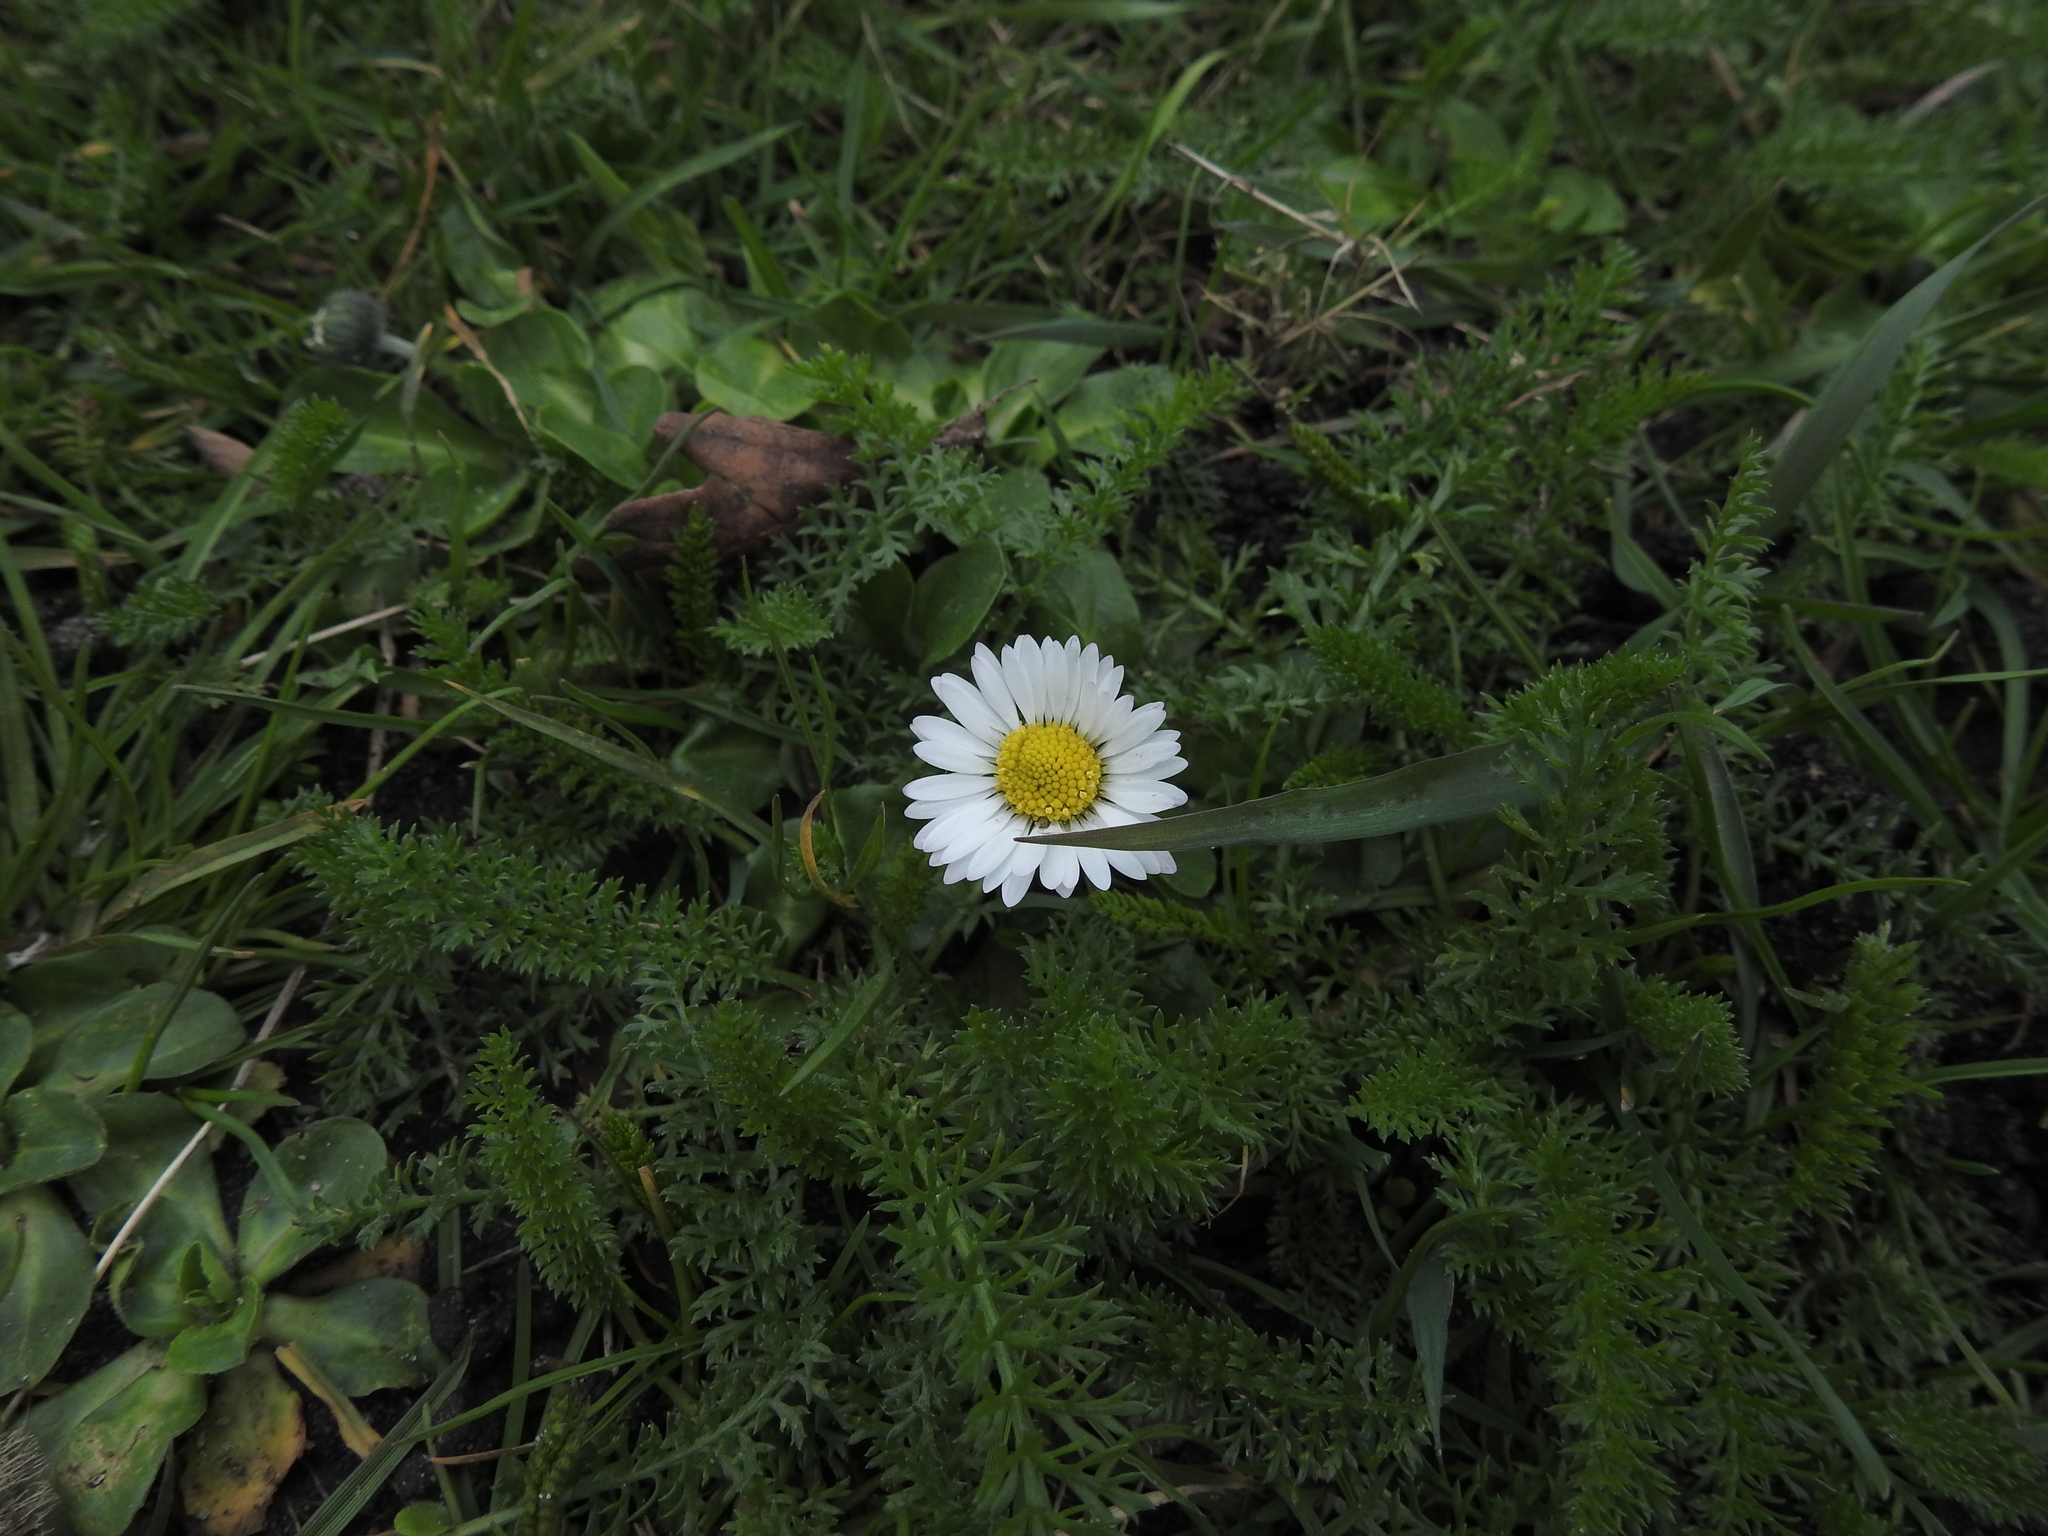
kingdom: Plantae
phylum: Tracheophyta
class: Magnoliopsida
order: Asterales
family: Asteraceae
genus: Bellis
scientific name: Bellis perennis
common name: Lawndaisy
